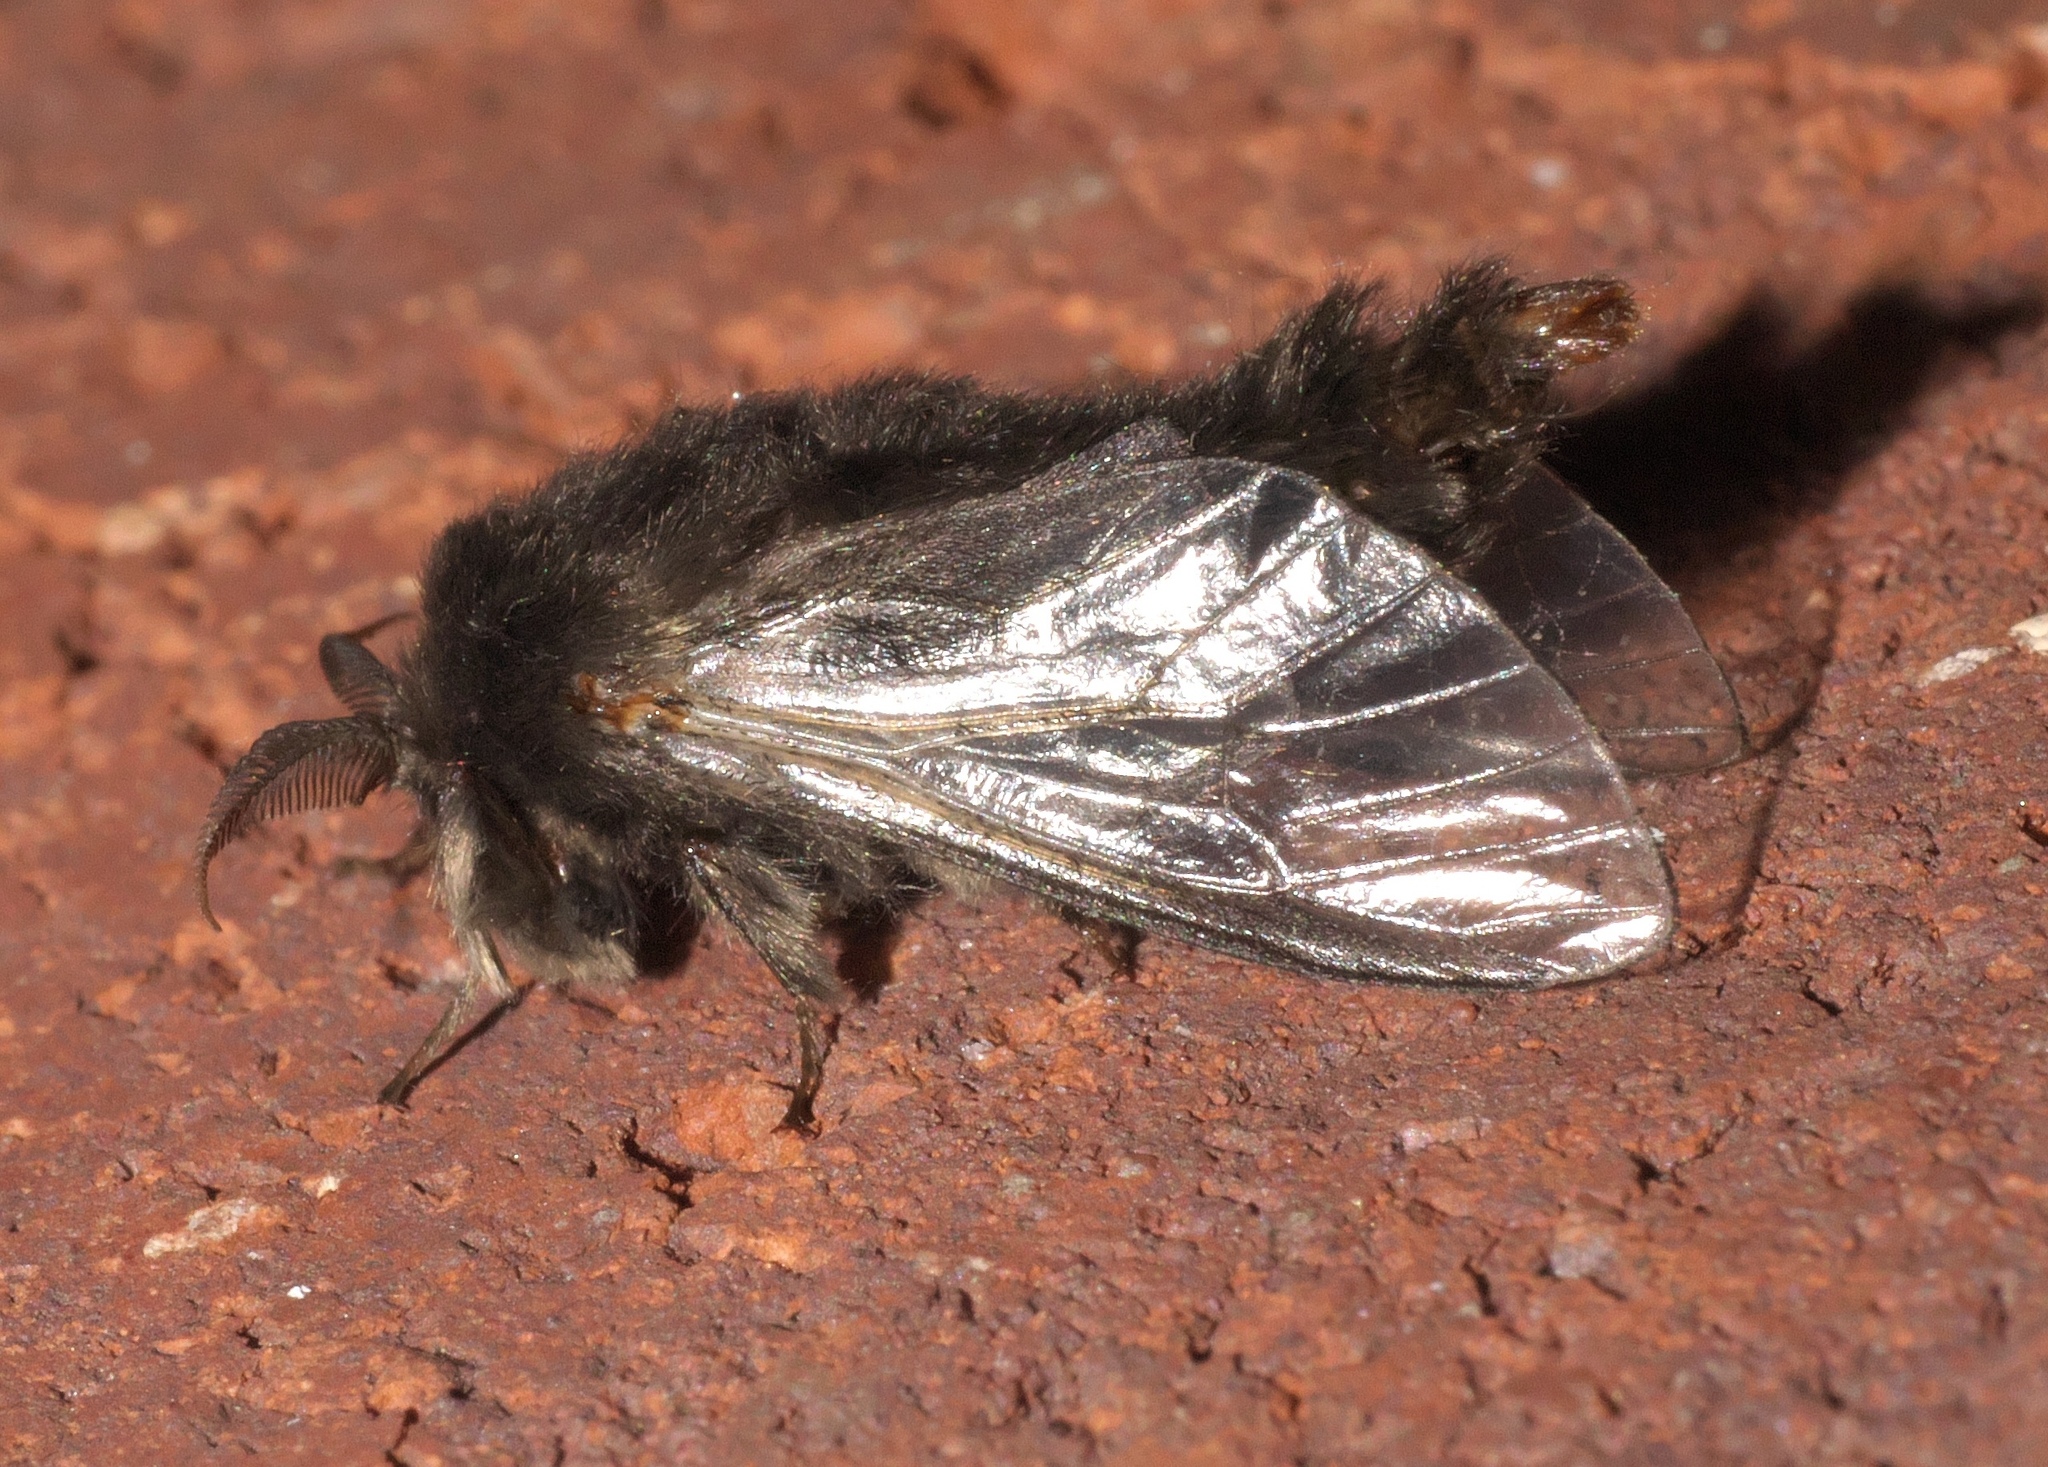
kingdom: Animalia
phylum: Arthropoda
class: Insecta
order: Lepidoptera
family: Psychidae
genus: Thyridopteryx
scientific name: Thyridopteryx ephemeraeformis
